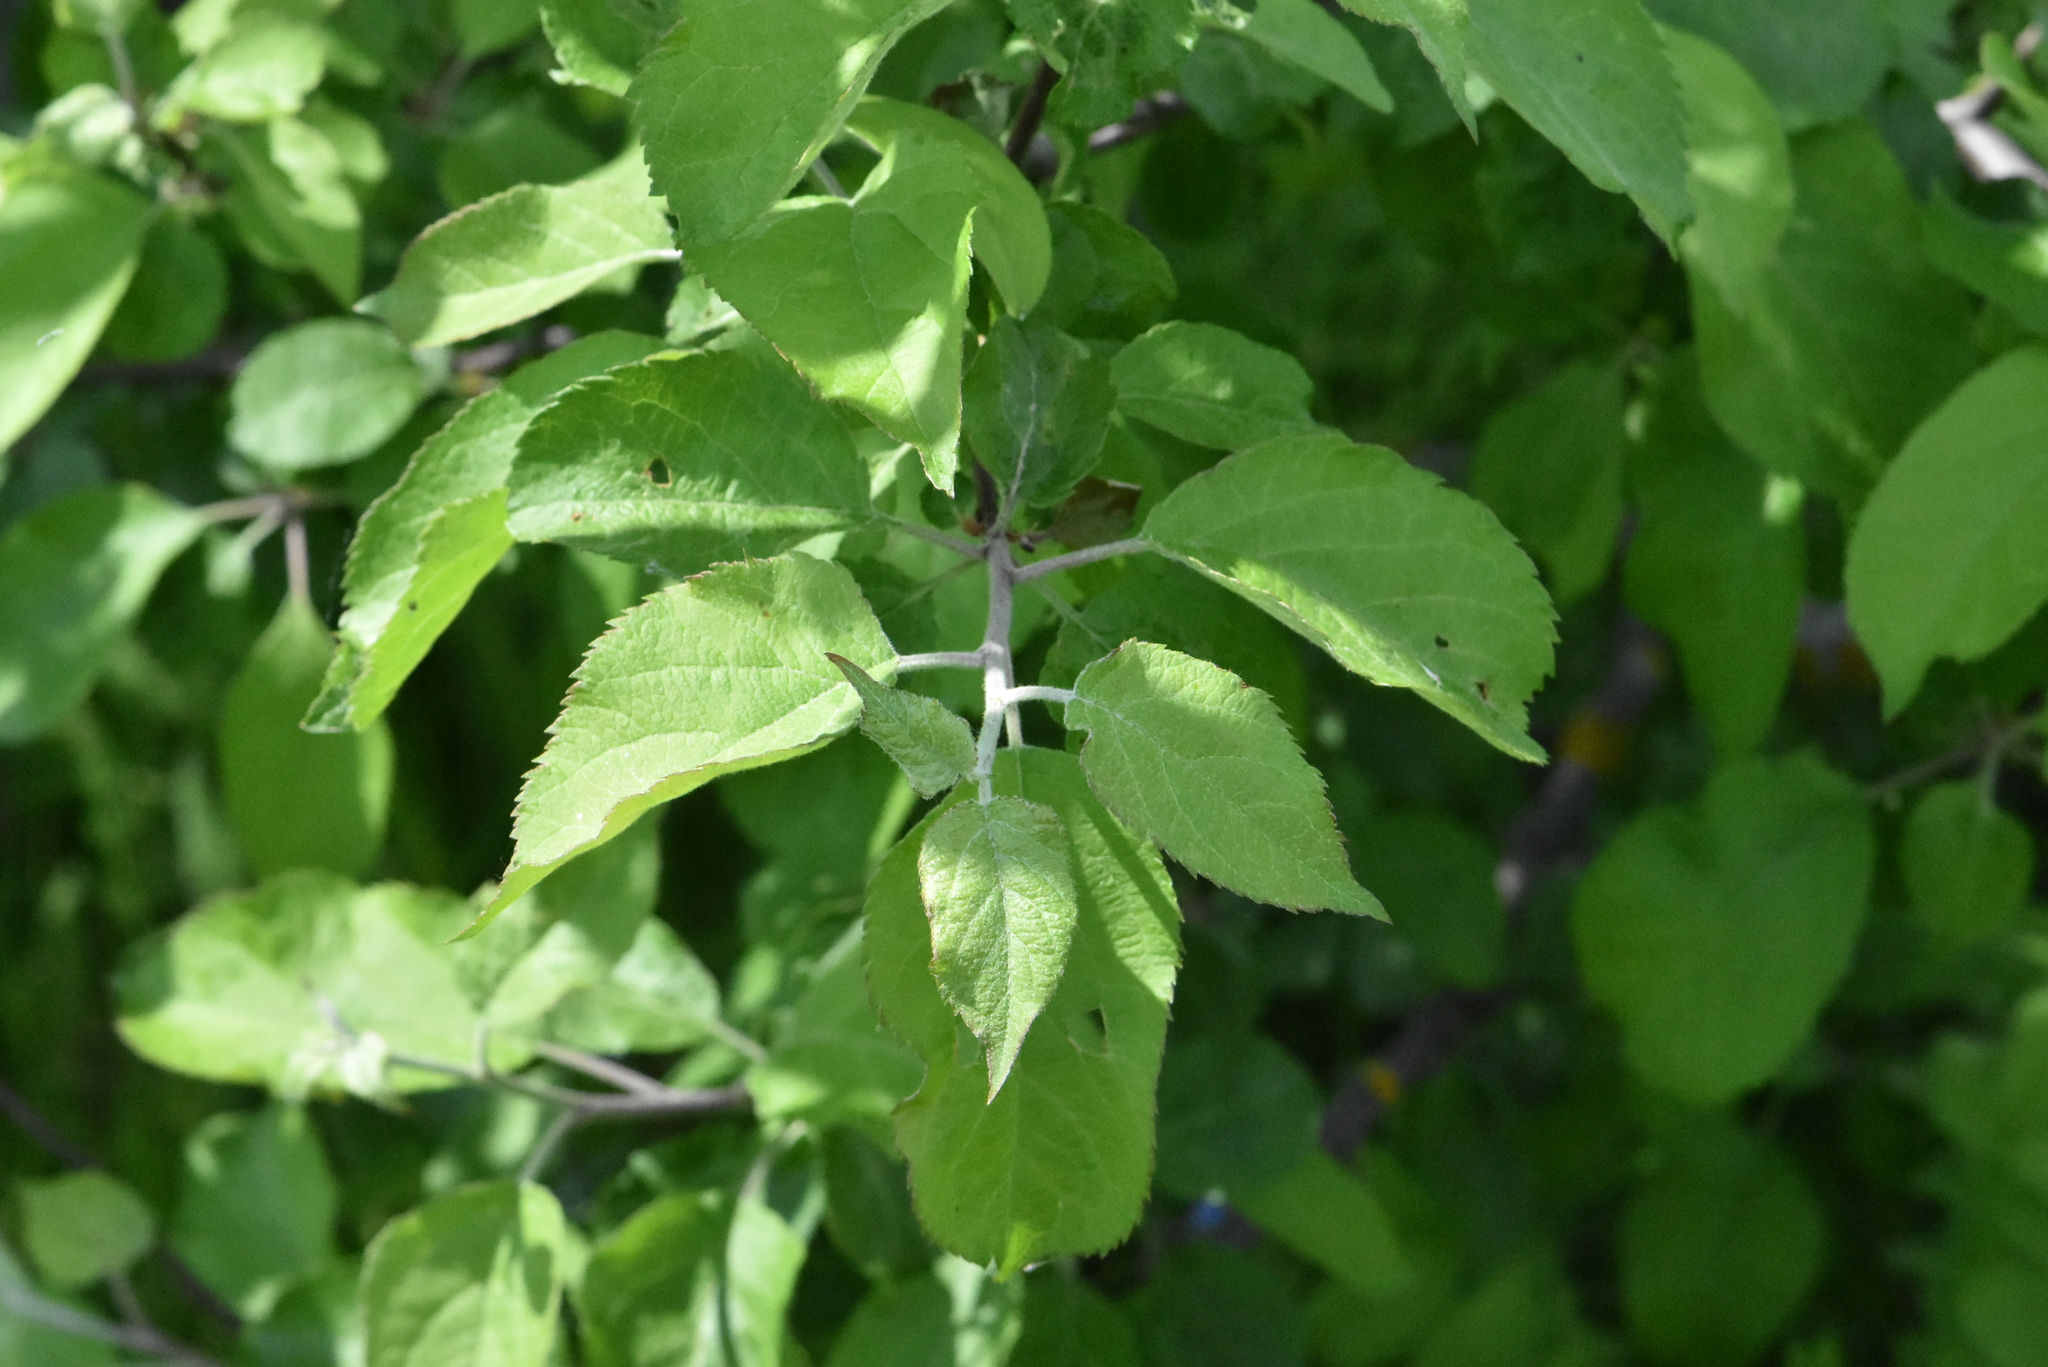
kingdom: Plantae
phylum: Tracheophyta
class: Magnoliopsida
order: Rosales
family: Rosaceae
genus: Malus
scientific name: Malus domestica
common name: Apple
